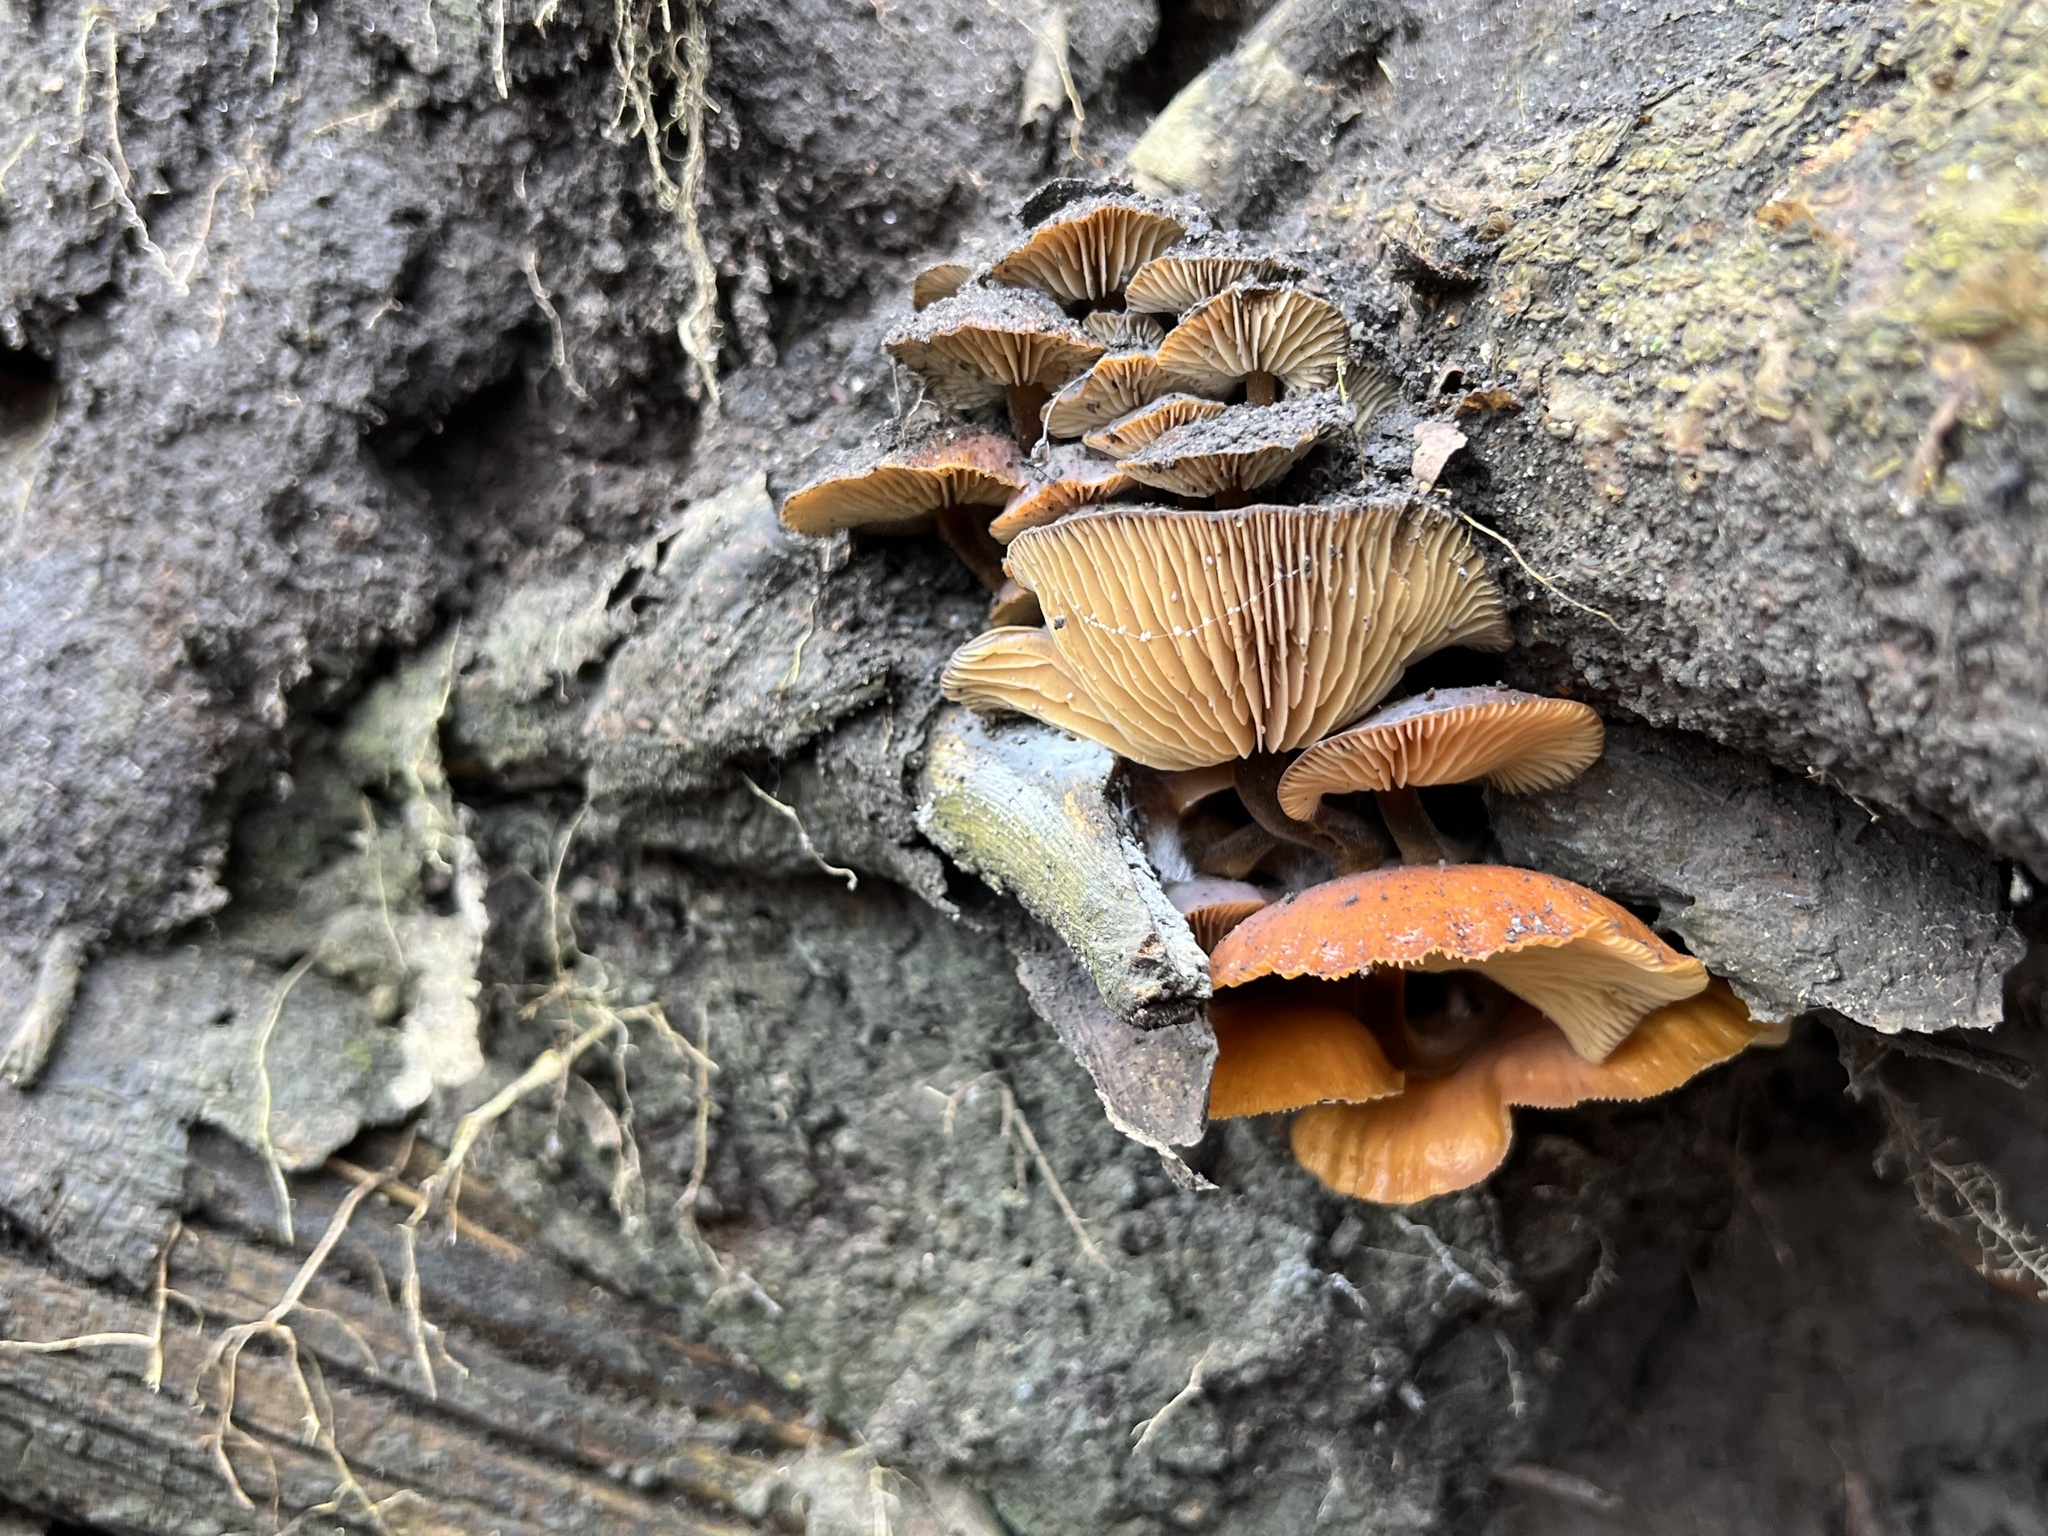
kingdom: Fungi
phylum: Basidiomycota
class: Agaricomycetes
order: Agaricales
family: Physalacriaceae
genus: Flammulina
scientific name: Flammulina velutipes
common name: Velvet shank
